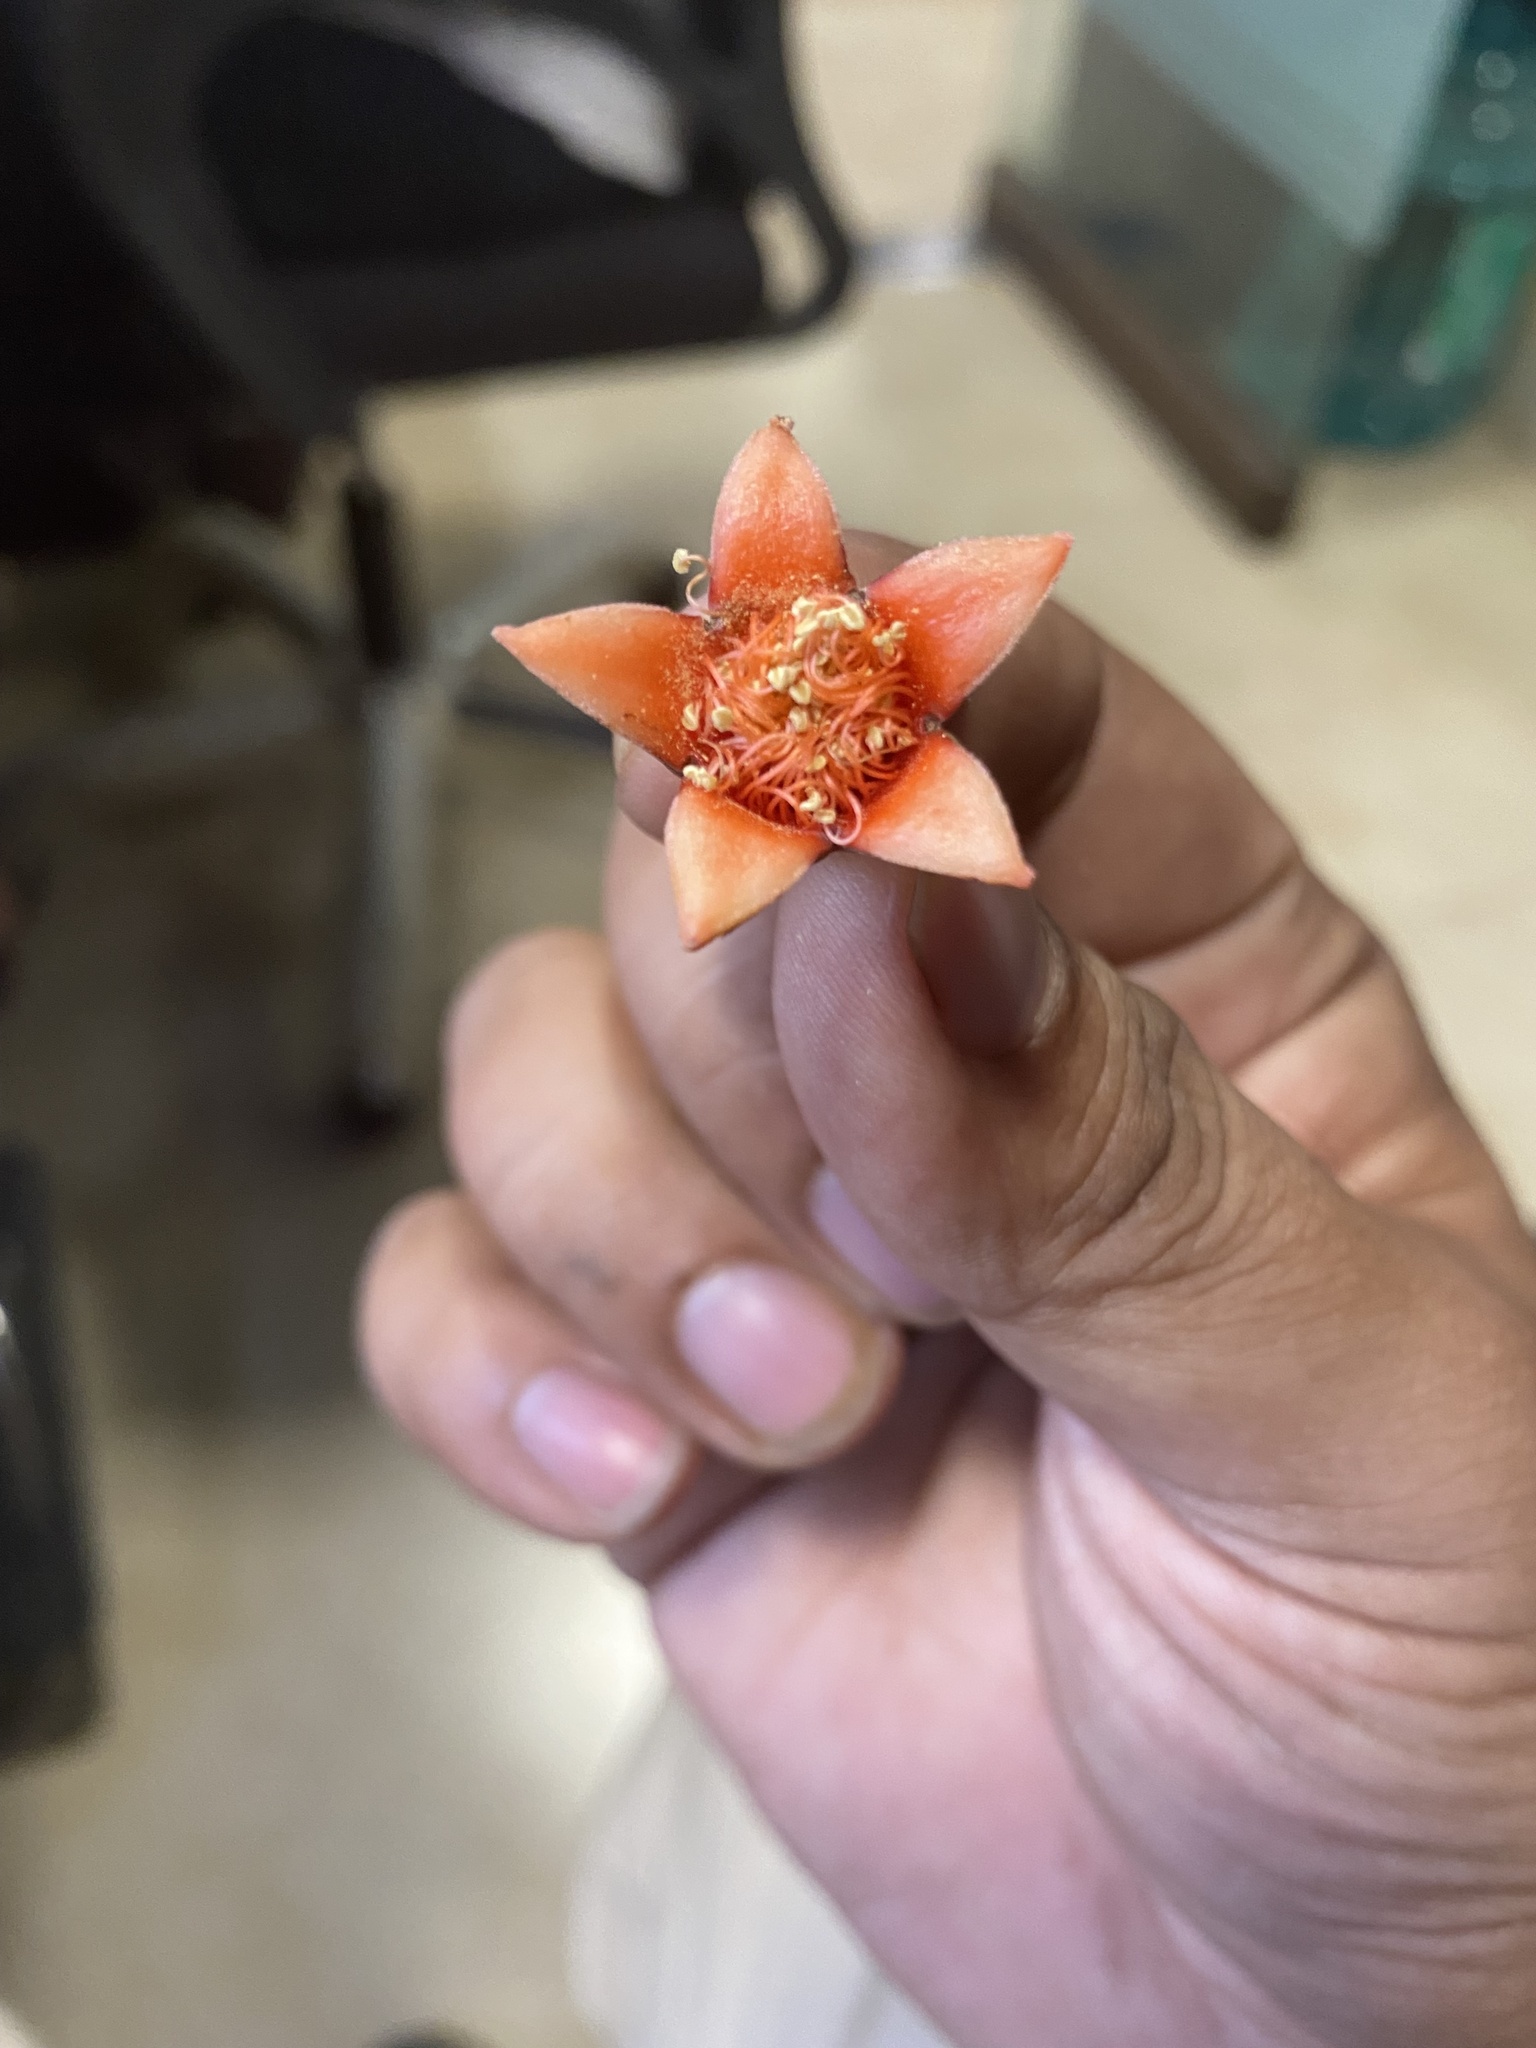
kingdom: Plantae
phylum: Tracheophyta
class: Magnoliopsida
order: Myrtales
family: Lythraceae
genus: Punica
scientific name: Punica granatum
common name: Pomegranate
